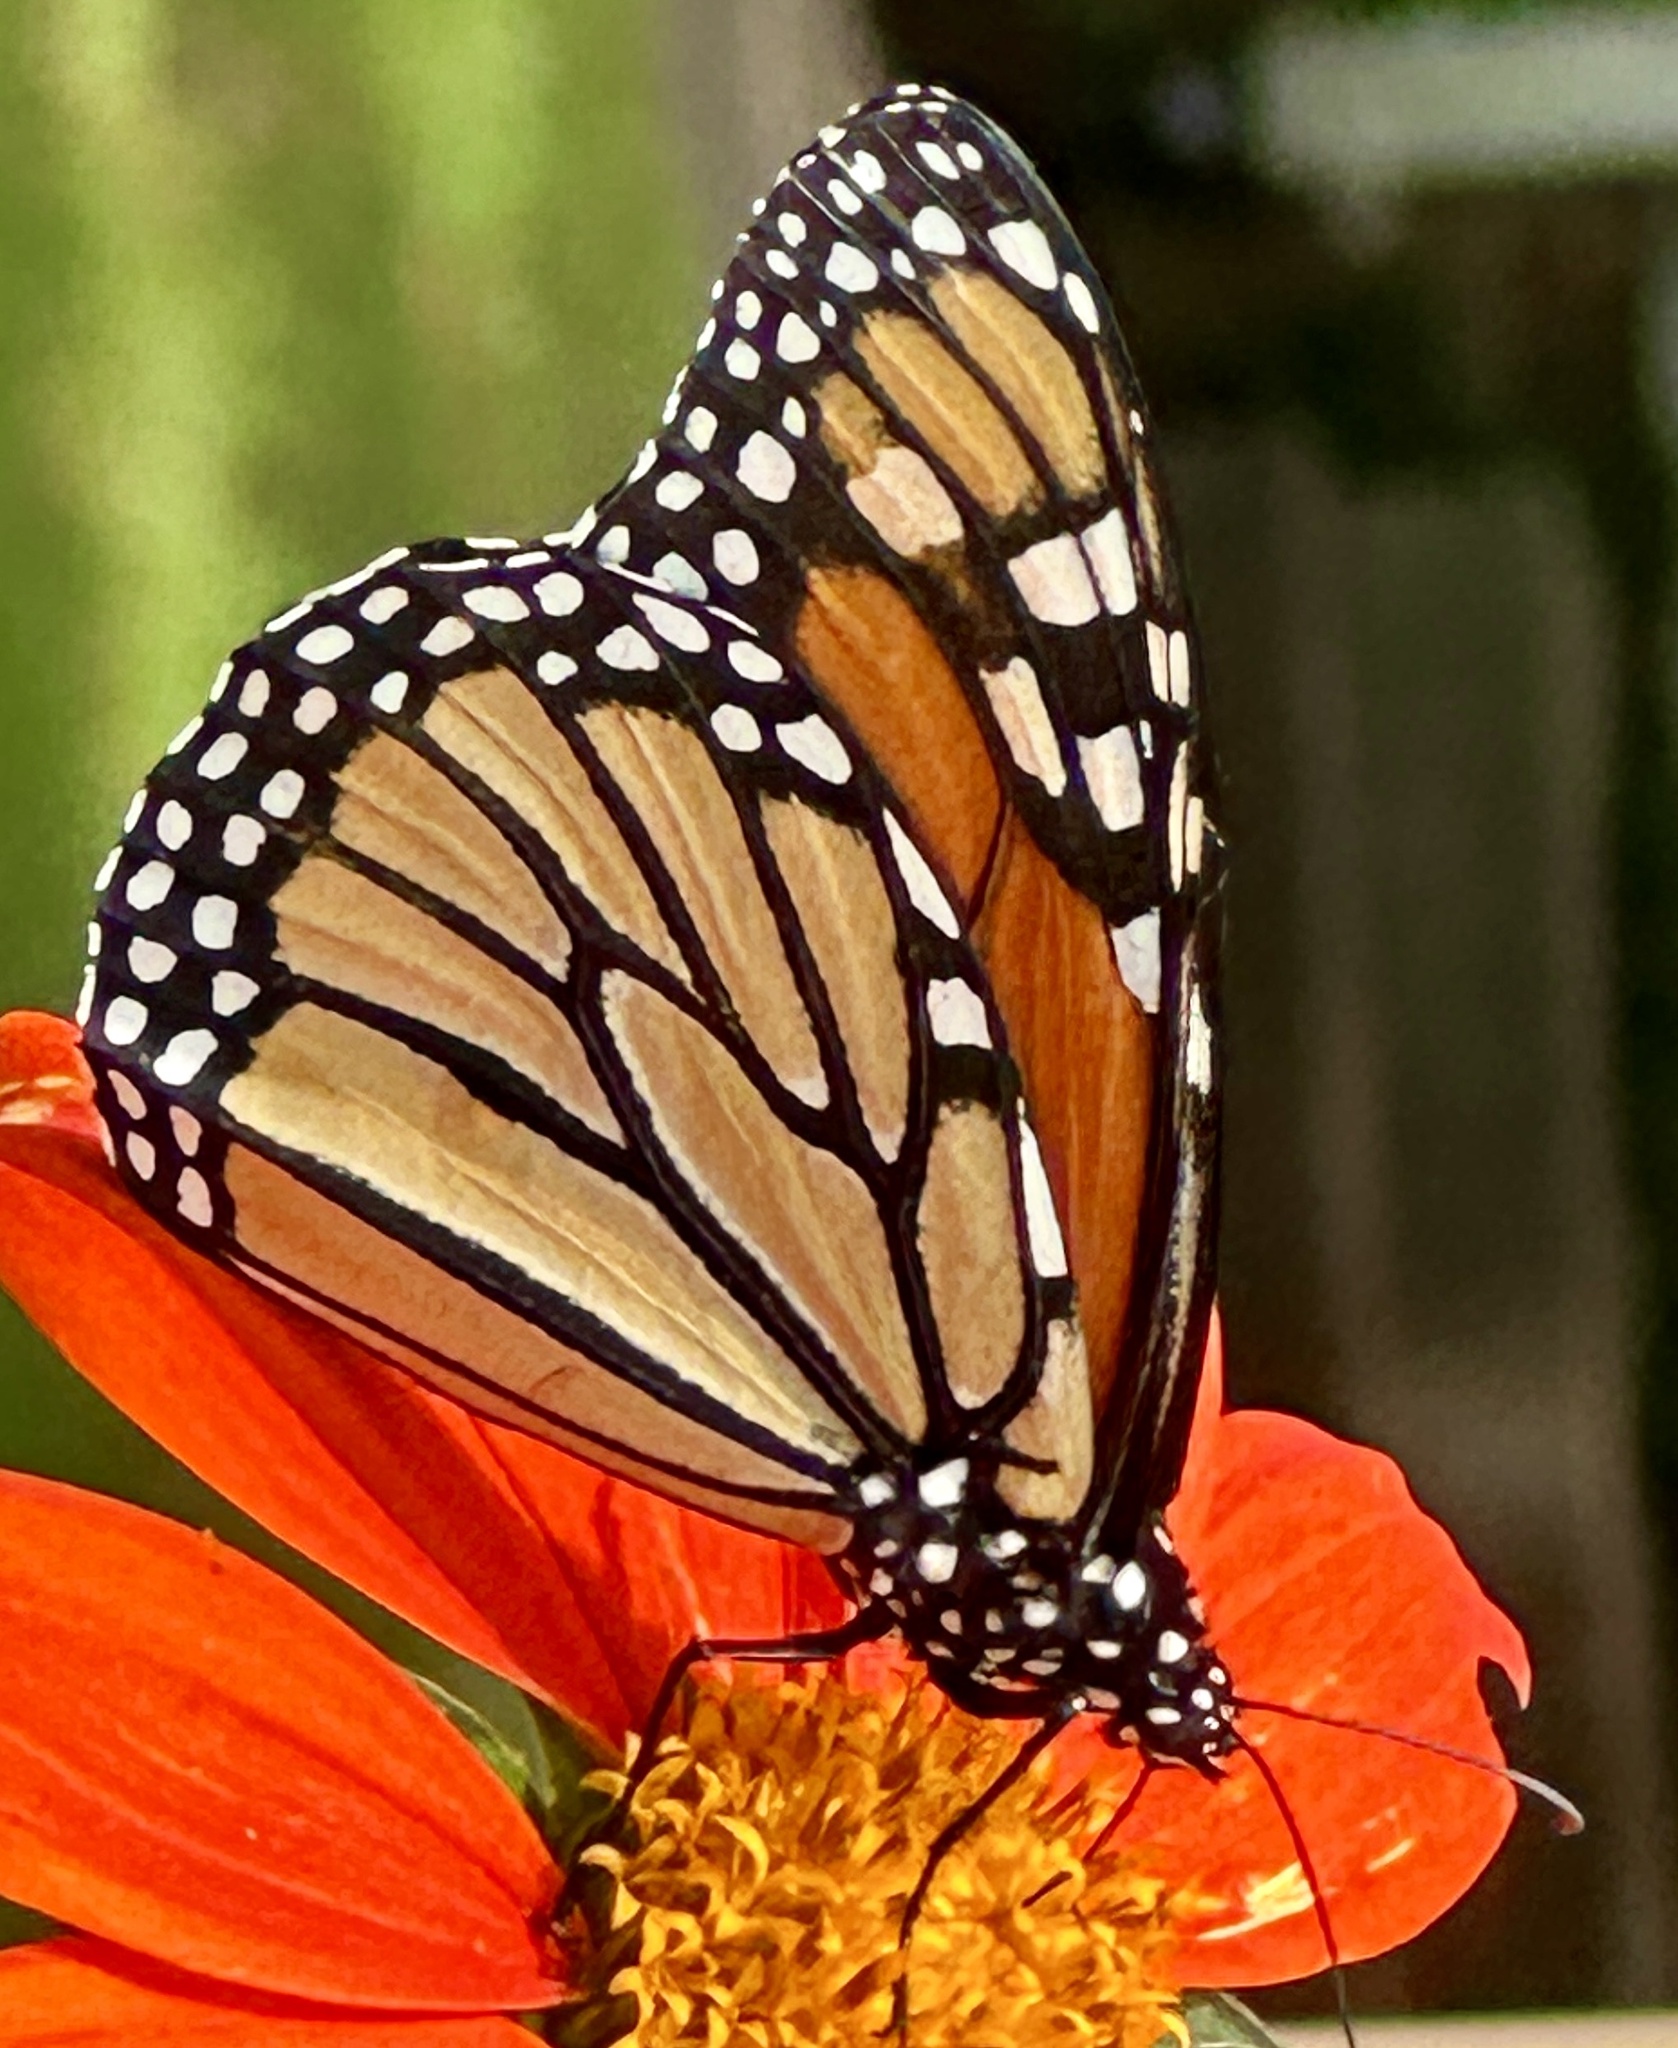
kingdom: Animalia
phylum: Arthropoda
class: Insecta
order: Lepidoptera
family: Nymphalidae
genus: Danaus
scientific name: Danaus plexippus
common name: Monarch
